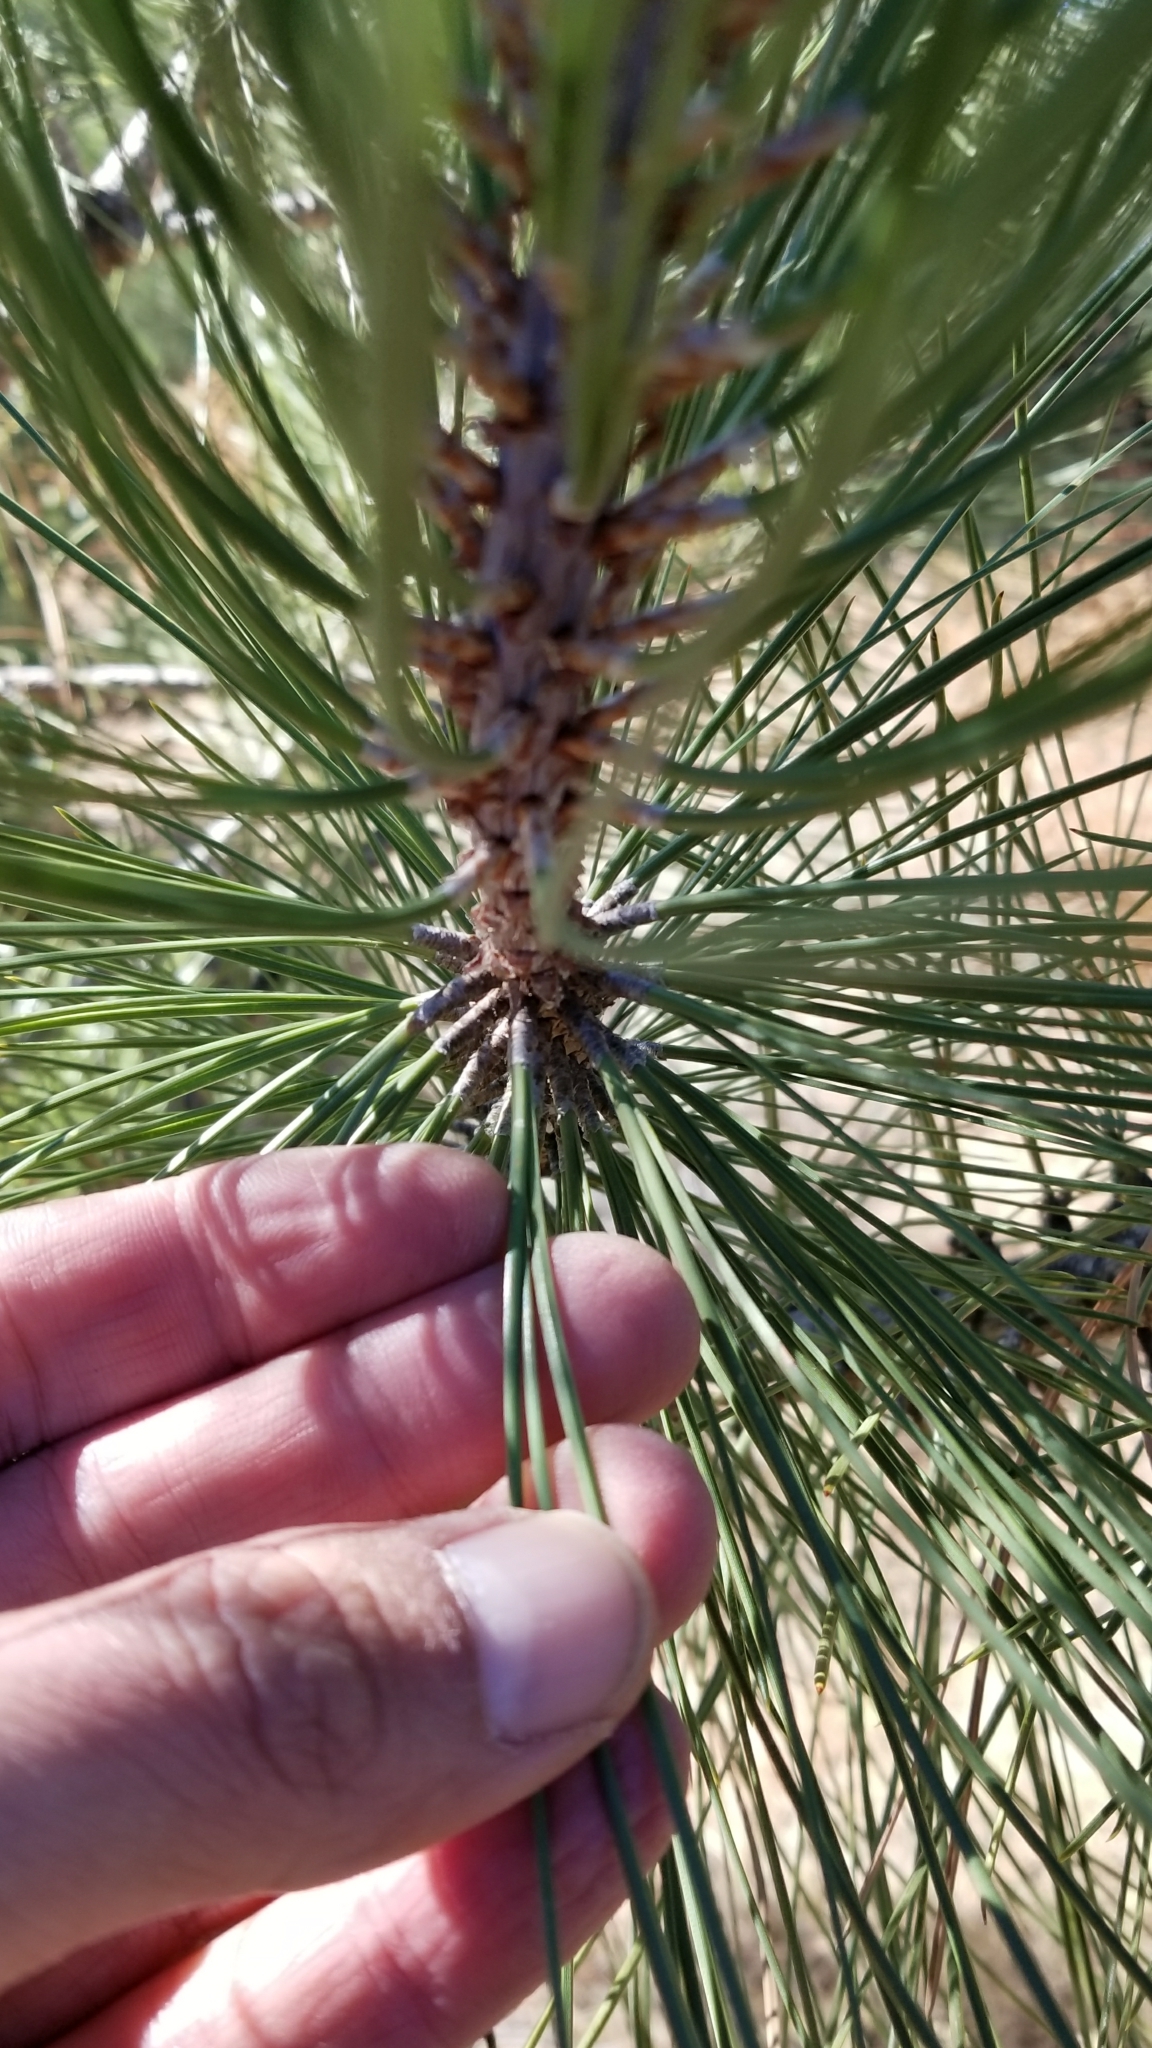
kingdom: Plantae
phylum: Tracheophyta
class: Pinopsida
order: Pinales
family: Pinaceae
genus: Pinus
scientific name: Pinus jeffreyi
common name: Jeffrey pine
